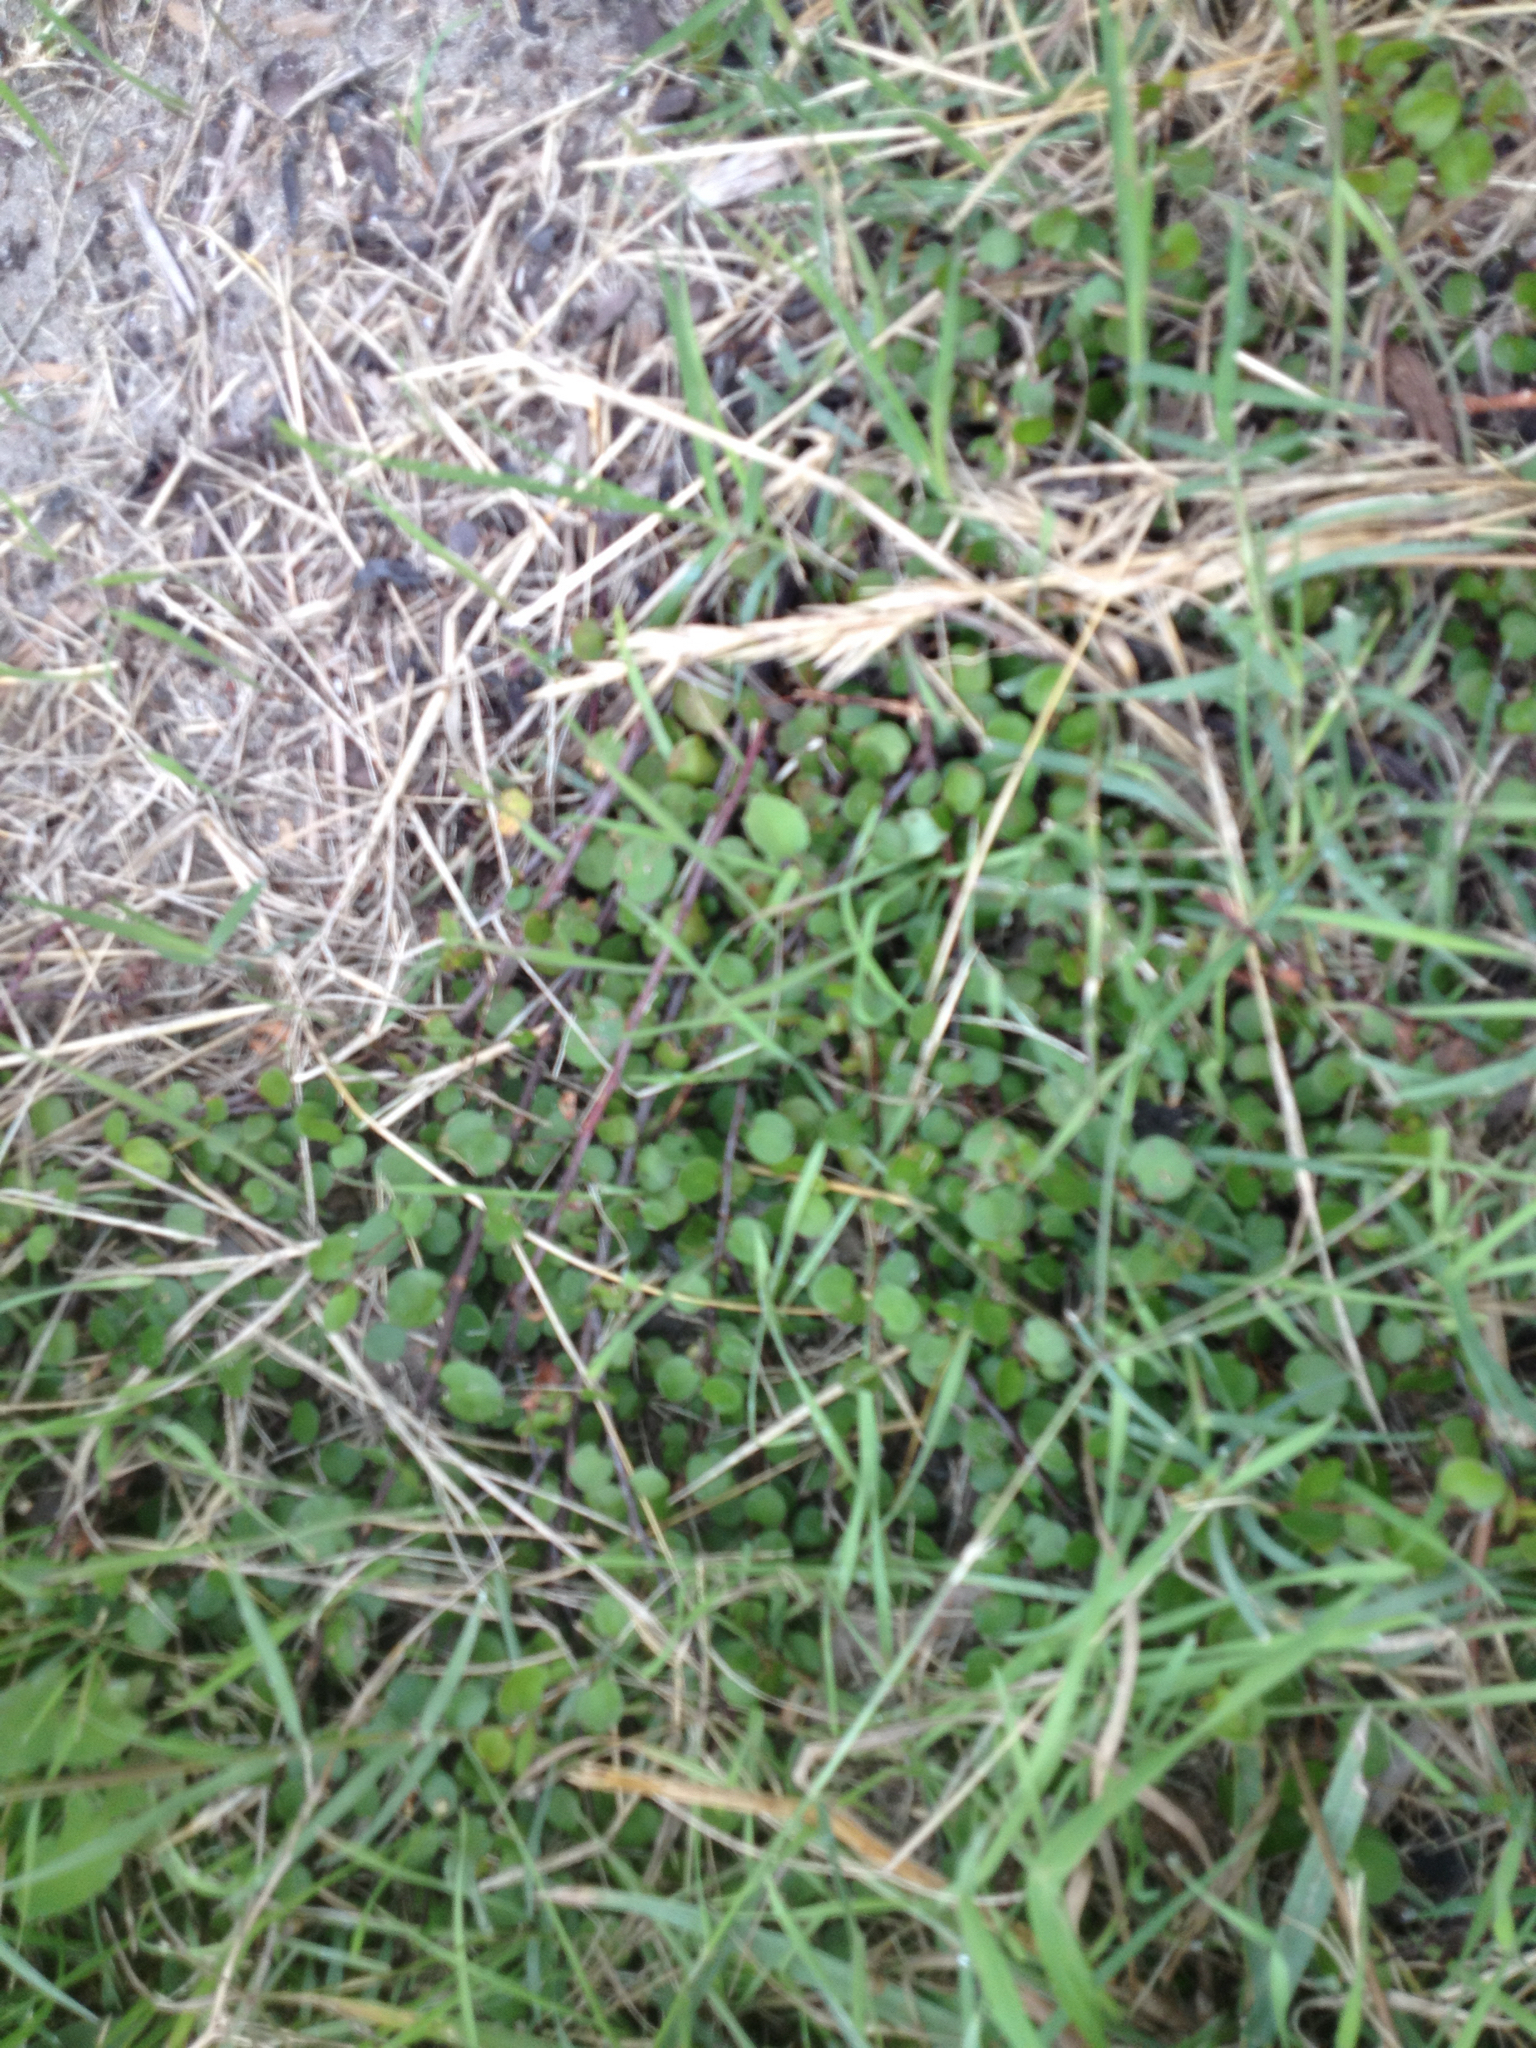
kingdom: Plantae
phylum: Tracheophyta
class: Magnoliopsida
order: Caryophyllales
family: Polygonaceae
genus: Muehlenbeckia
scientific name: Muehlenbeckia complexa
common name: Wireplant
